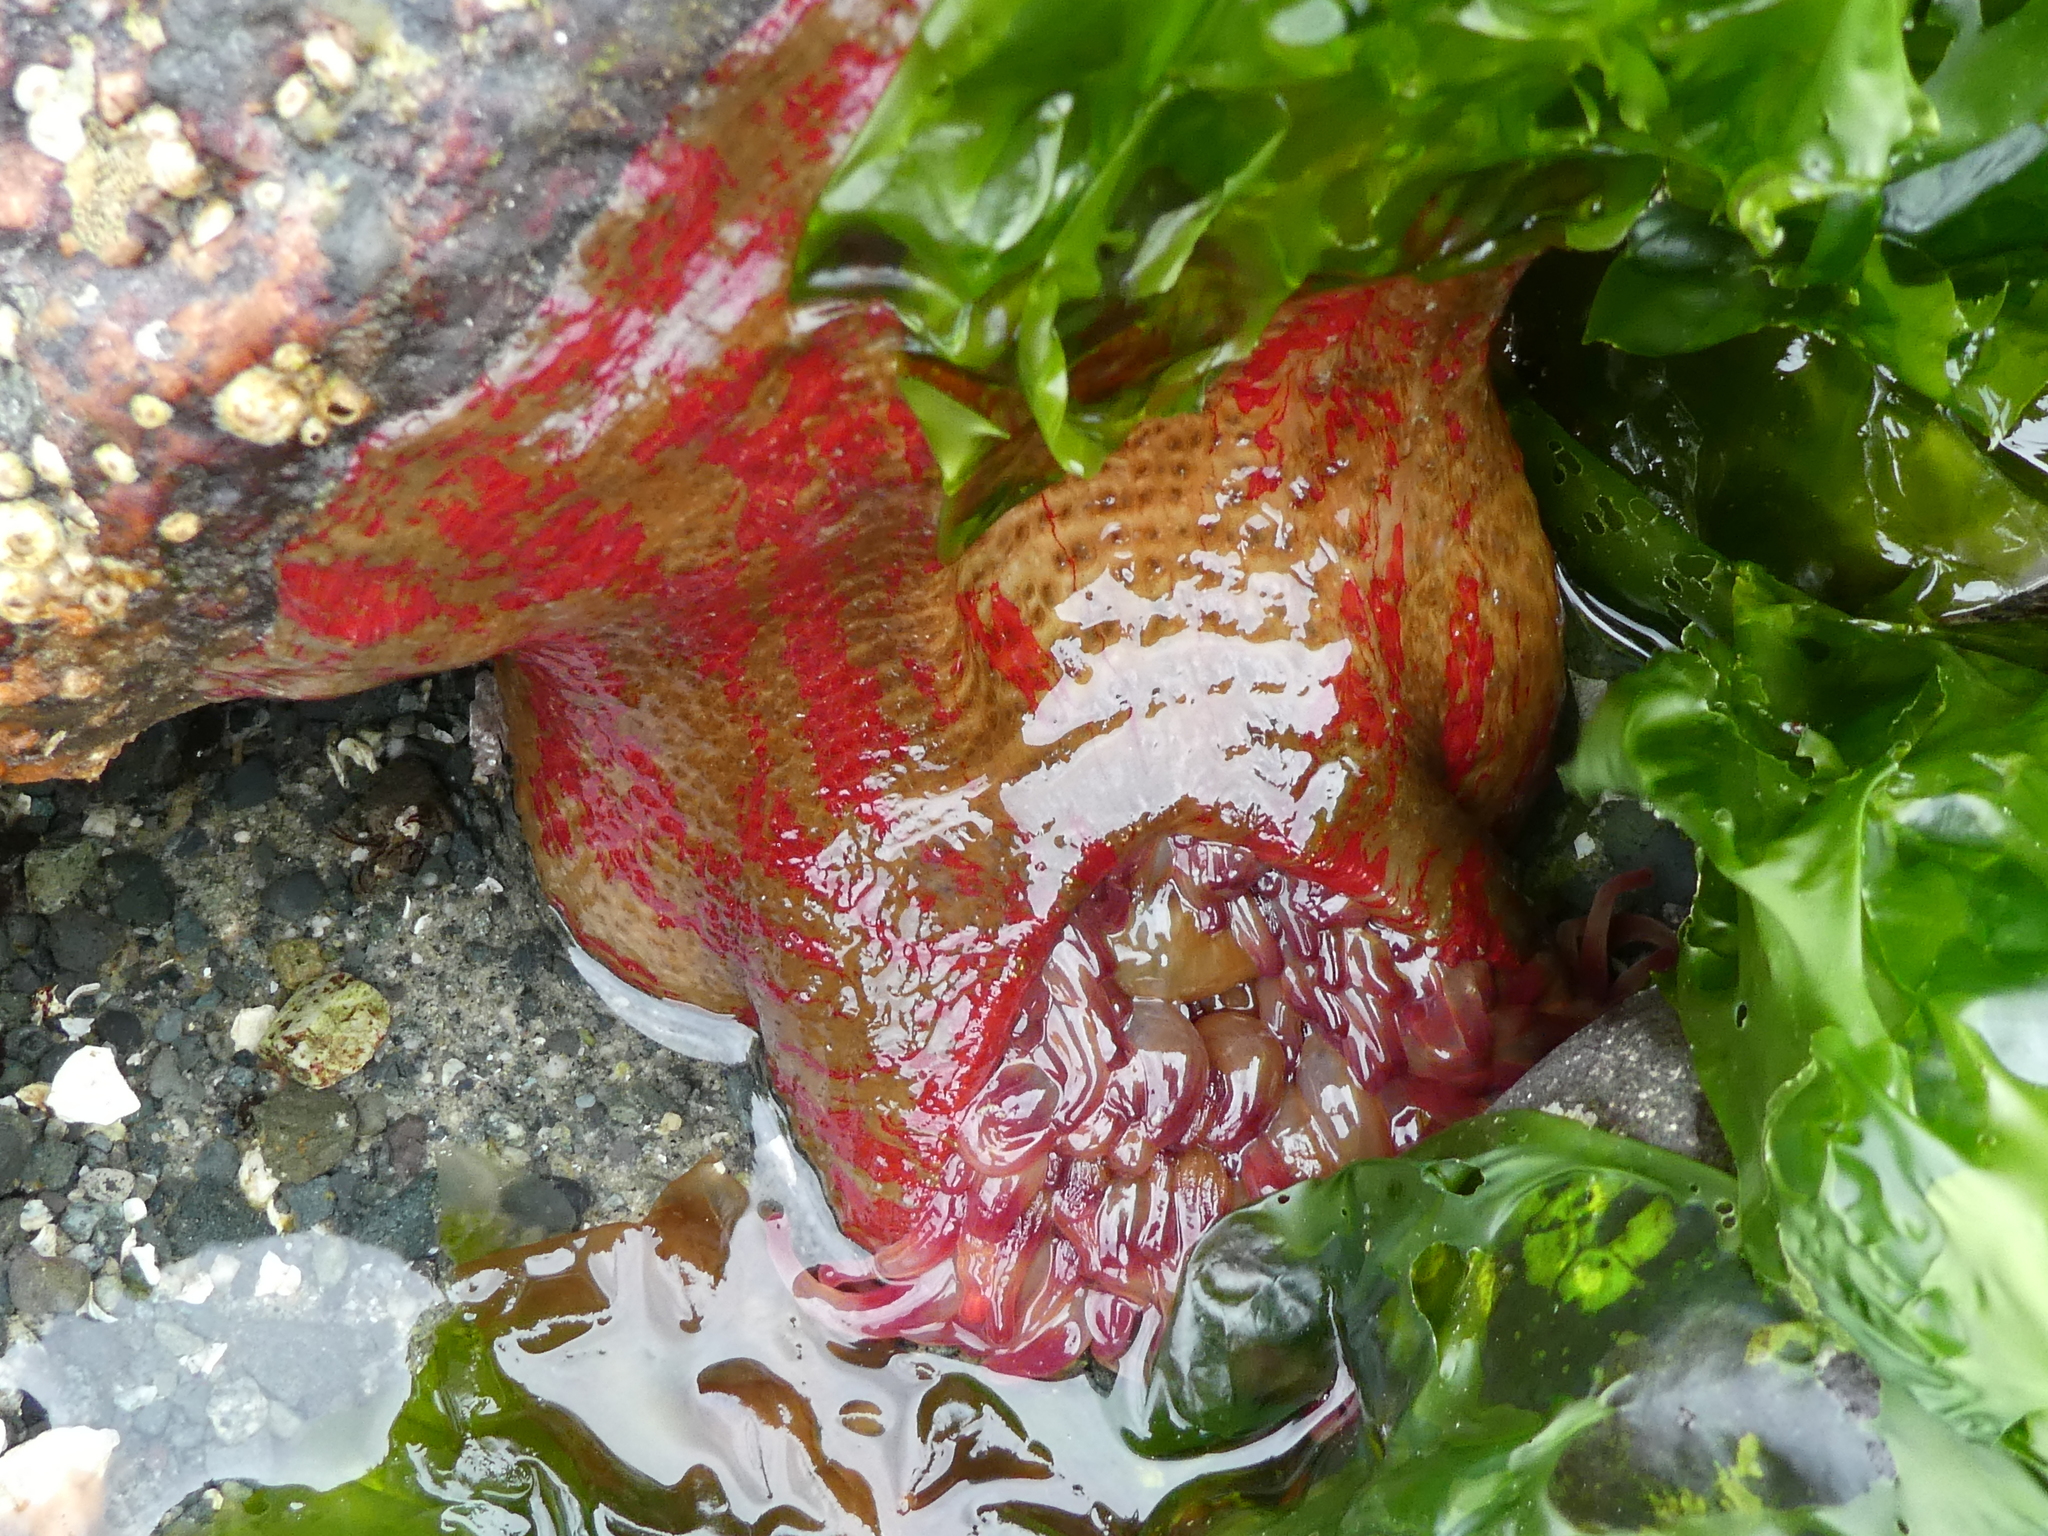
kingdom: Animalia
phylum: Cnidaria
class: Anthozoa
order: Actiniaria
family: Actiniidae
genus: Urticina
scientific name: Urticina grebelnyi
